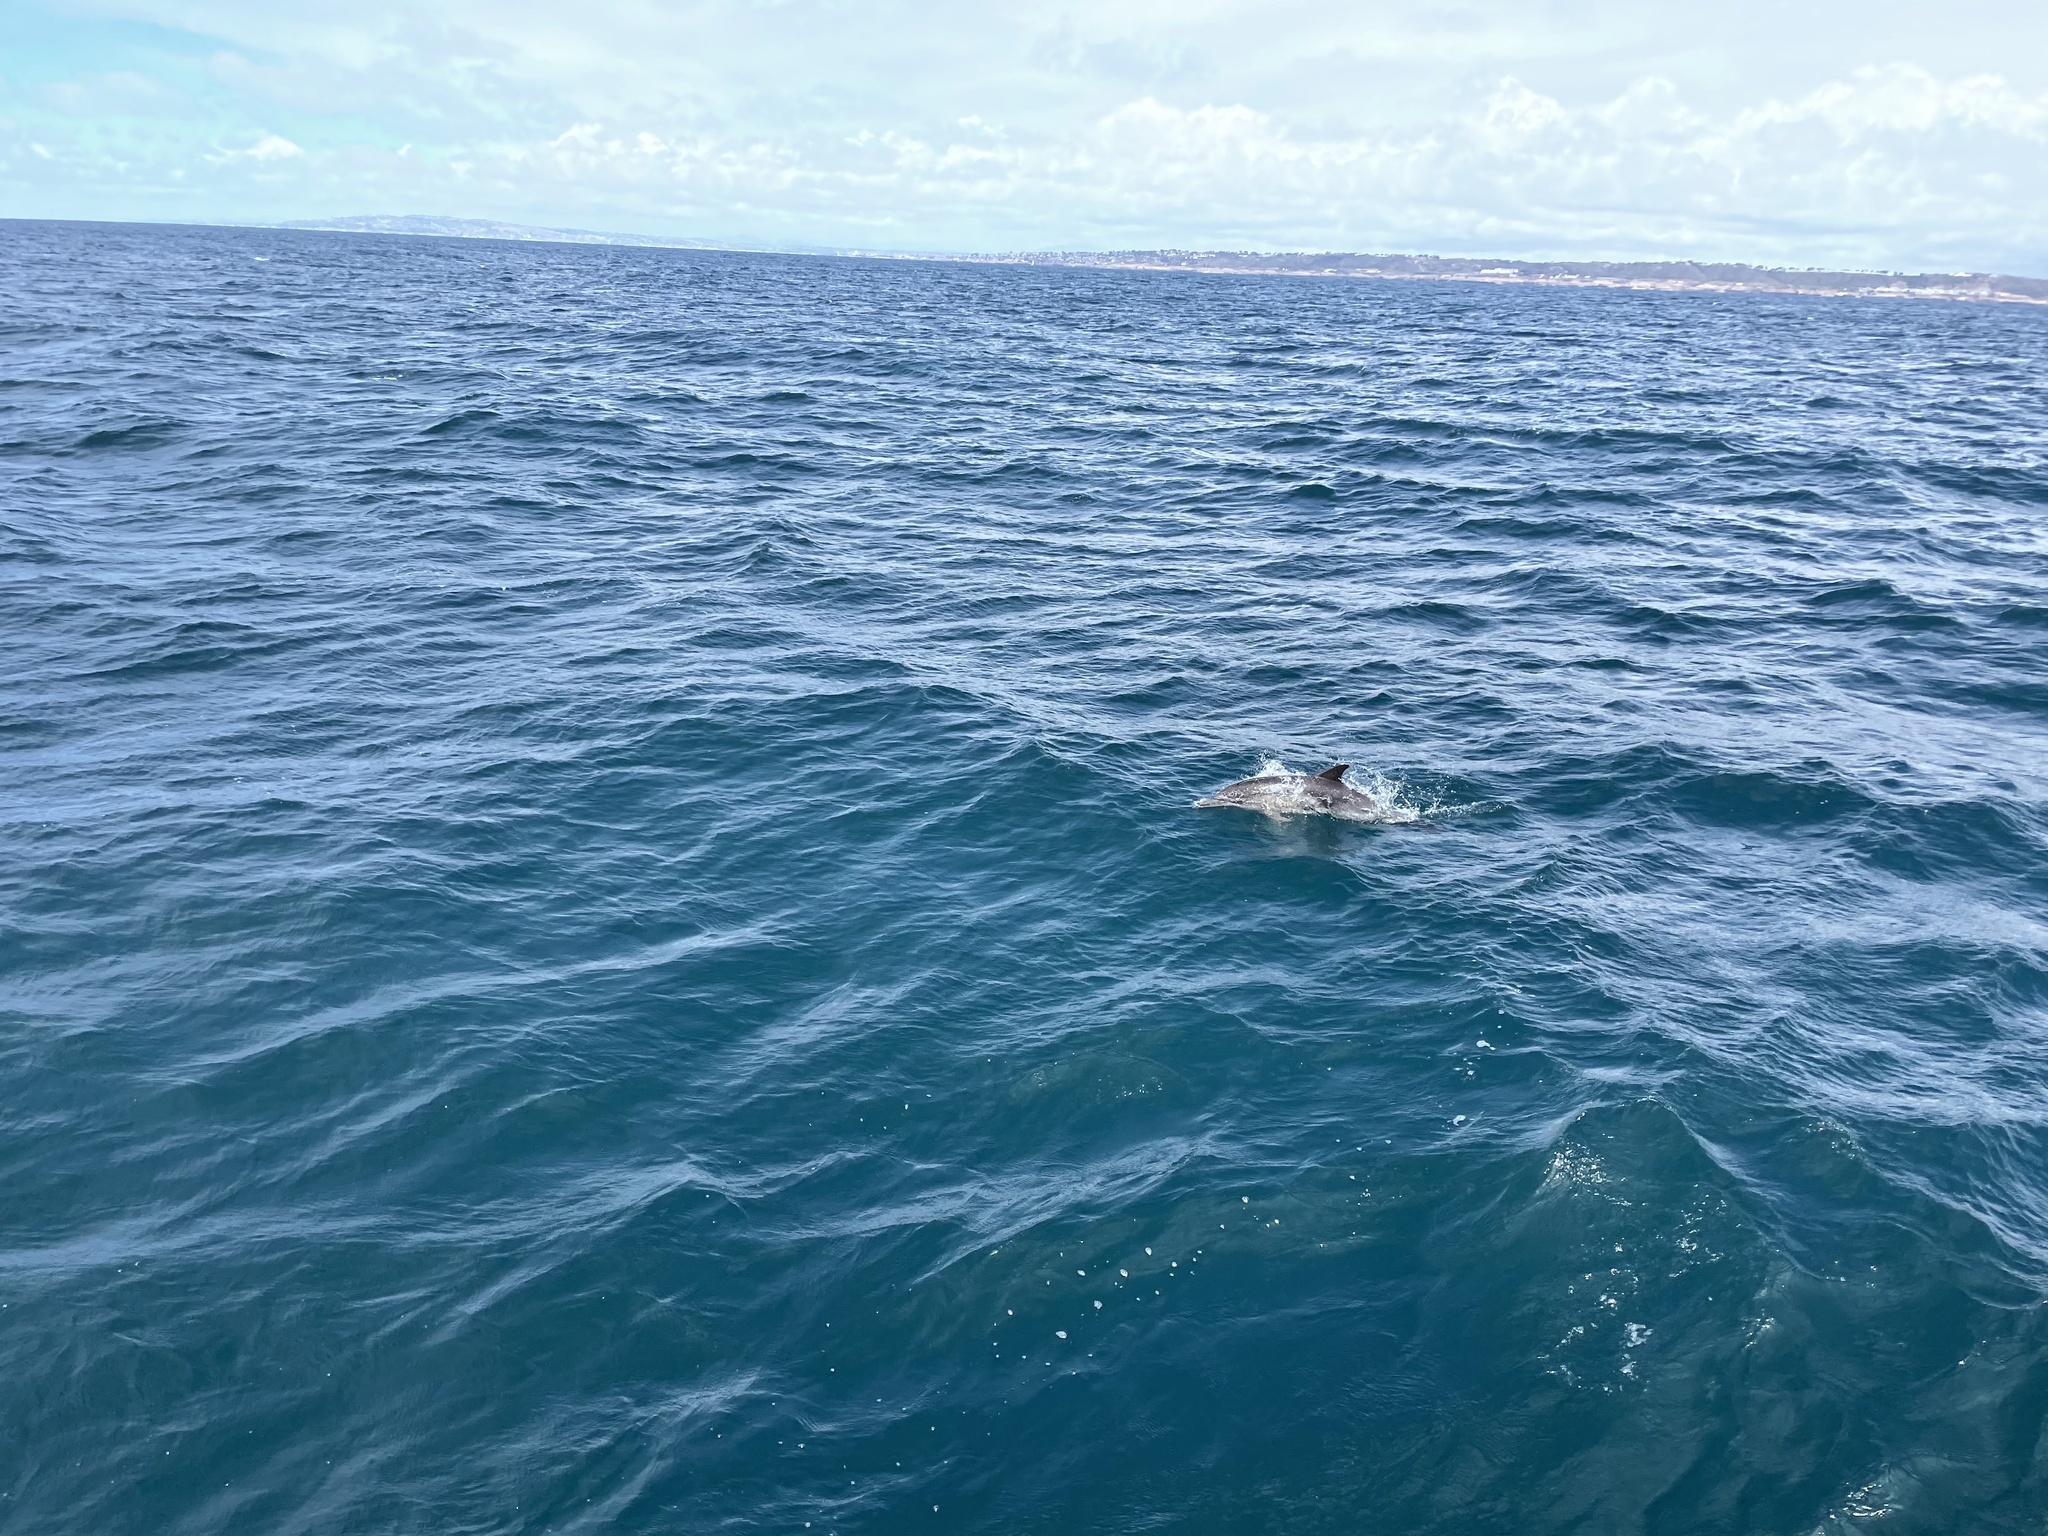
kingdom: Animalia
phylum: Chordata
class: Mammalia
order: Cetacea
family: Delphinidae
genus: Delphinus
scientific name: Delphinus delphis
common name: Common dolphin
